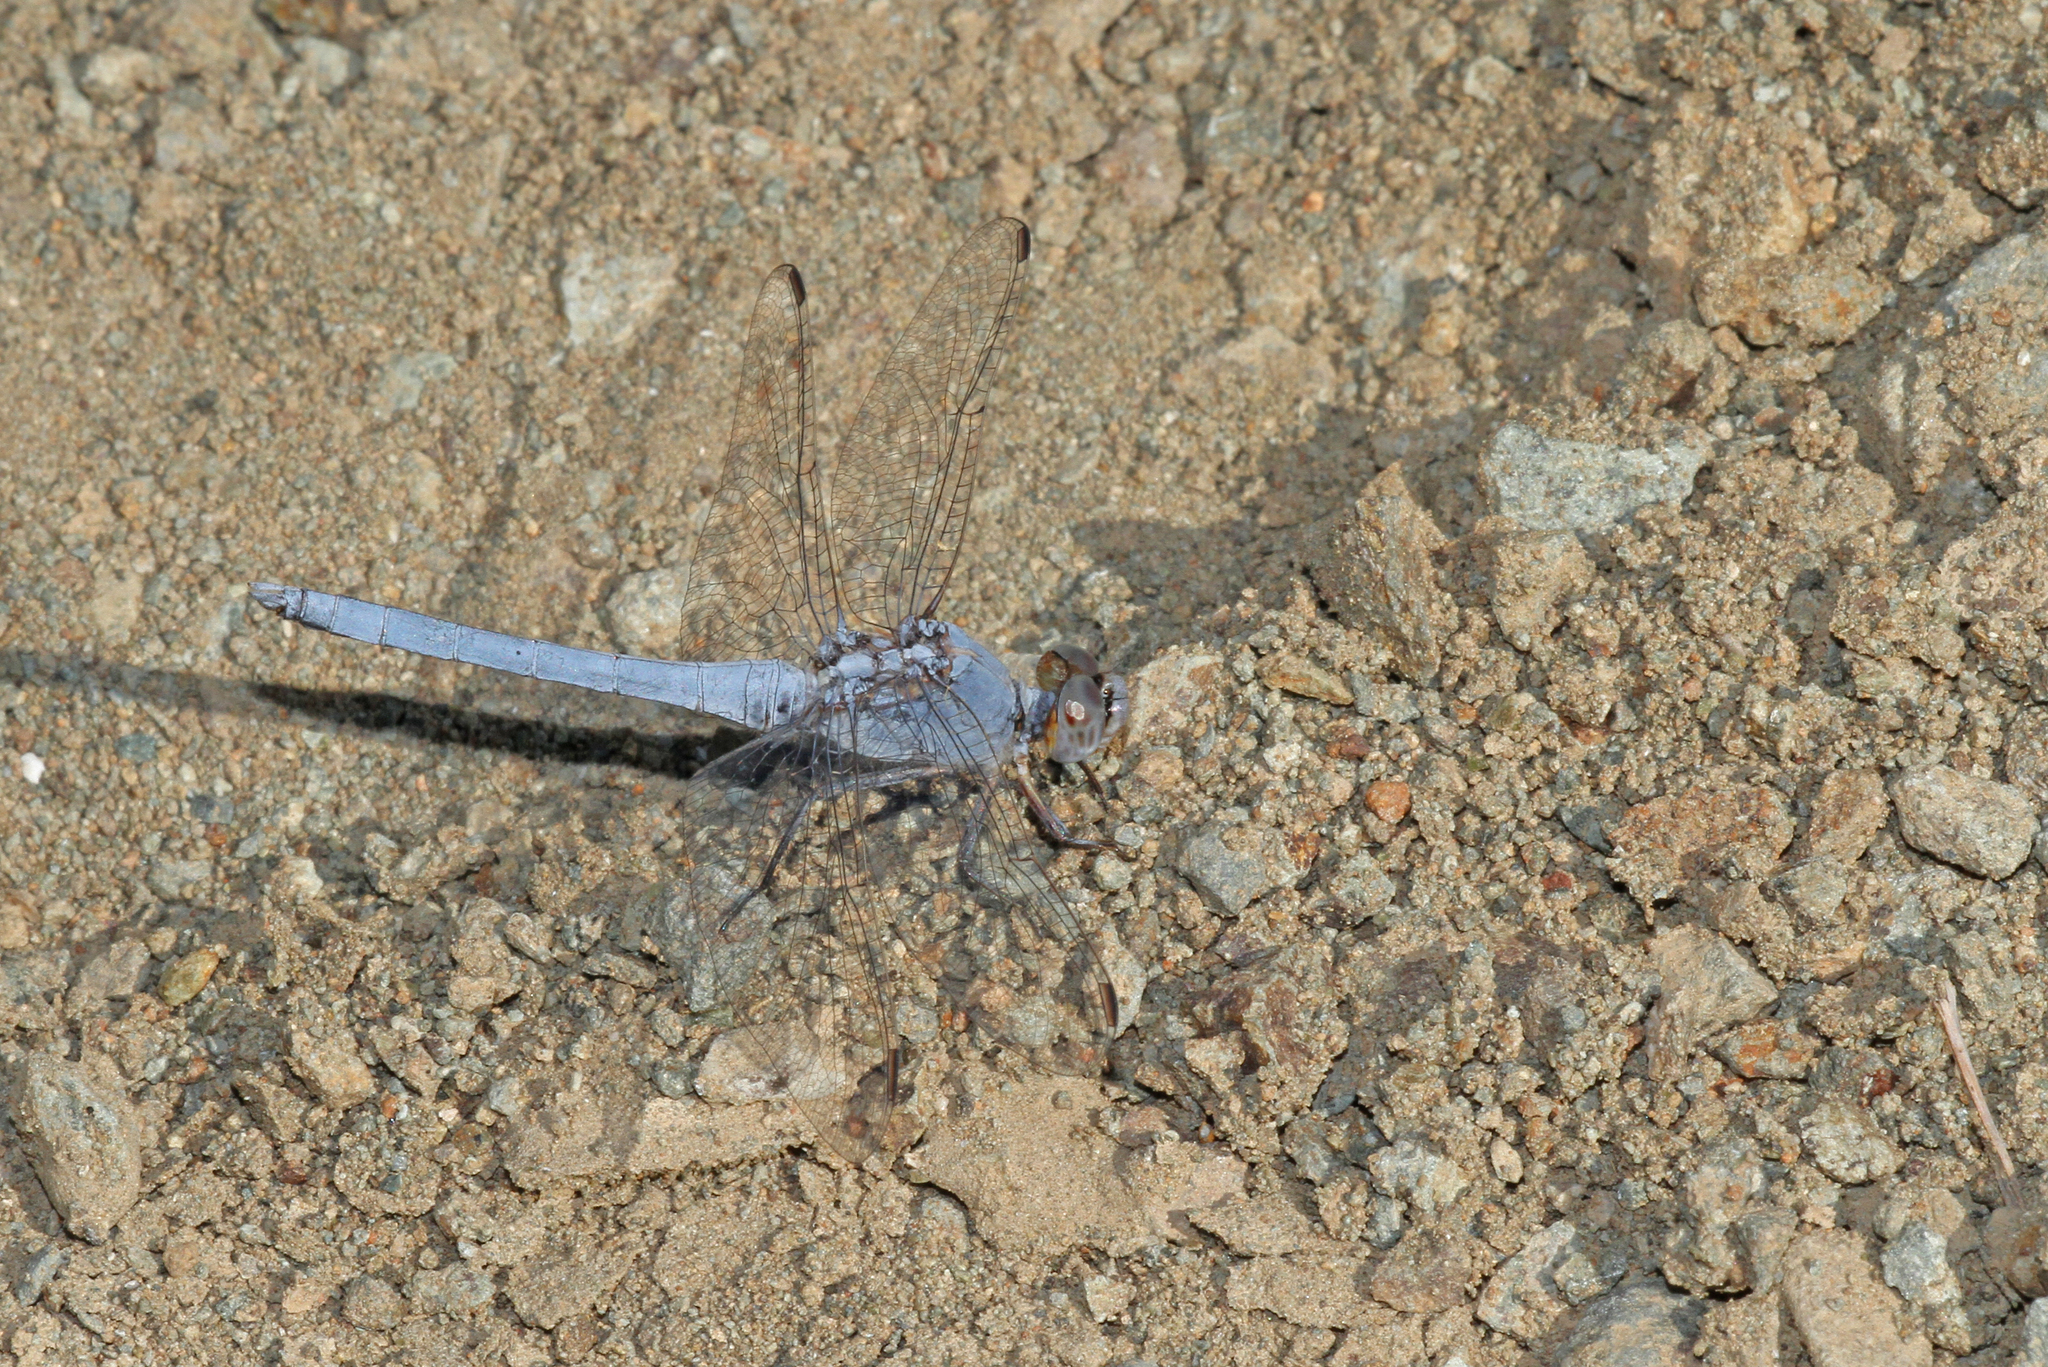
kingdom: Animalia
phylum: Arthropoda
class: Insecta
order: Odonata
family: Libellulidae
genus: Orthetrum
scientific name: Orthetrum taeniolatum
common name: Small skimmer
